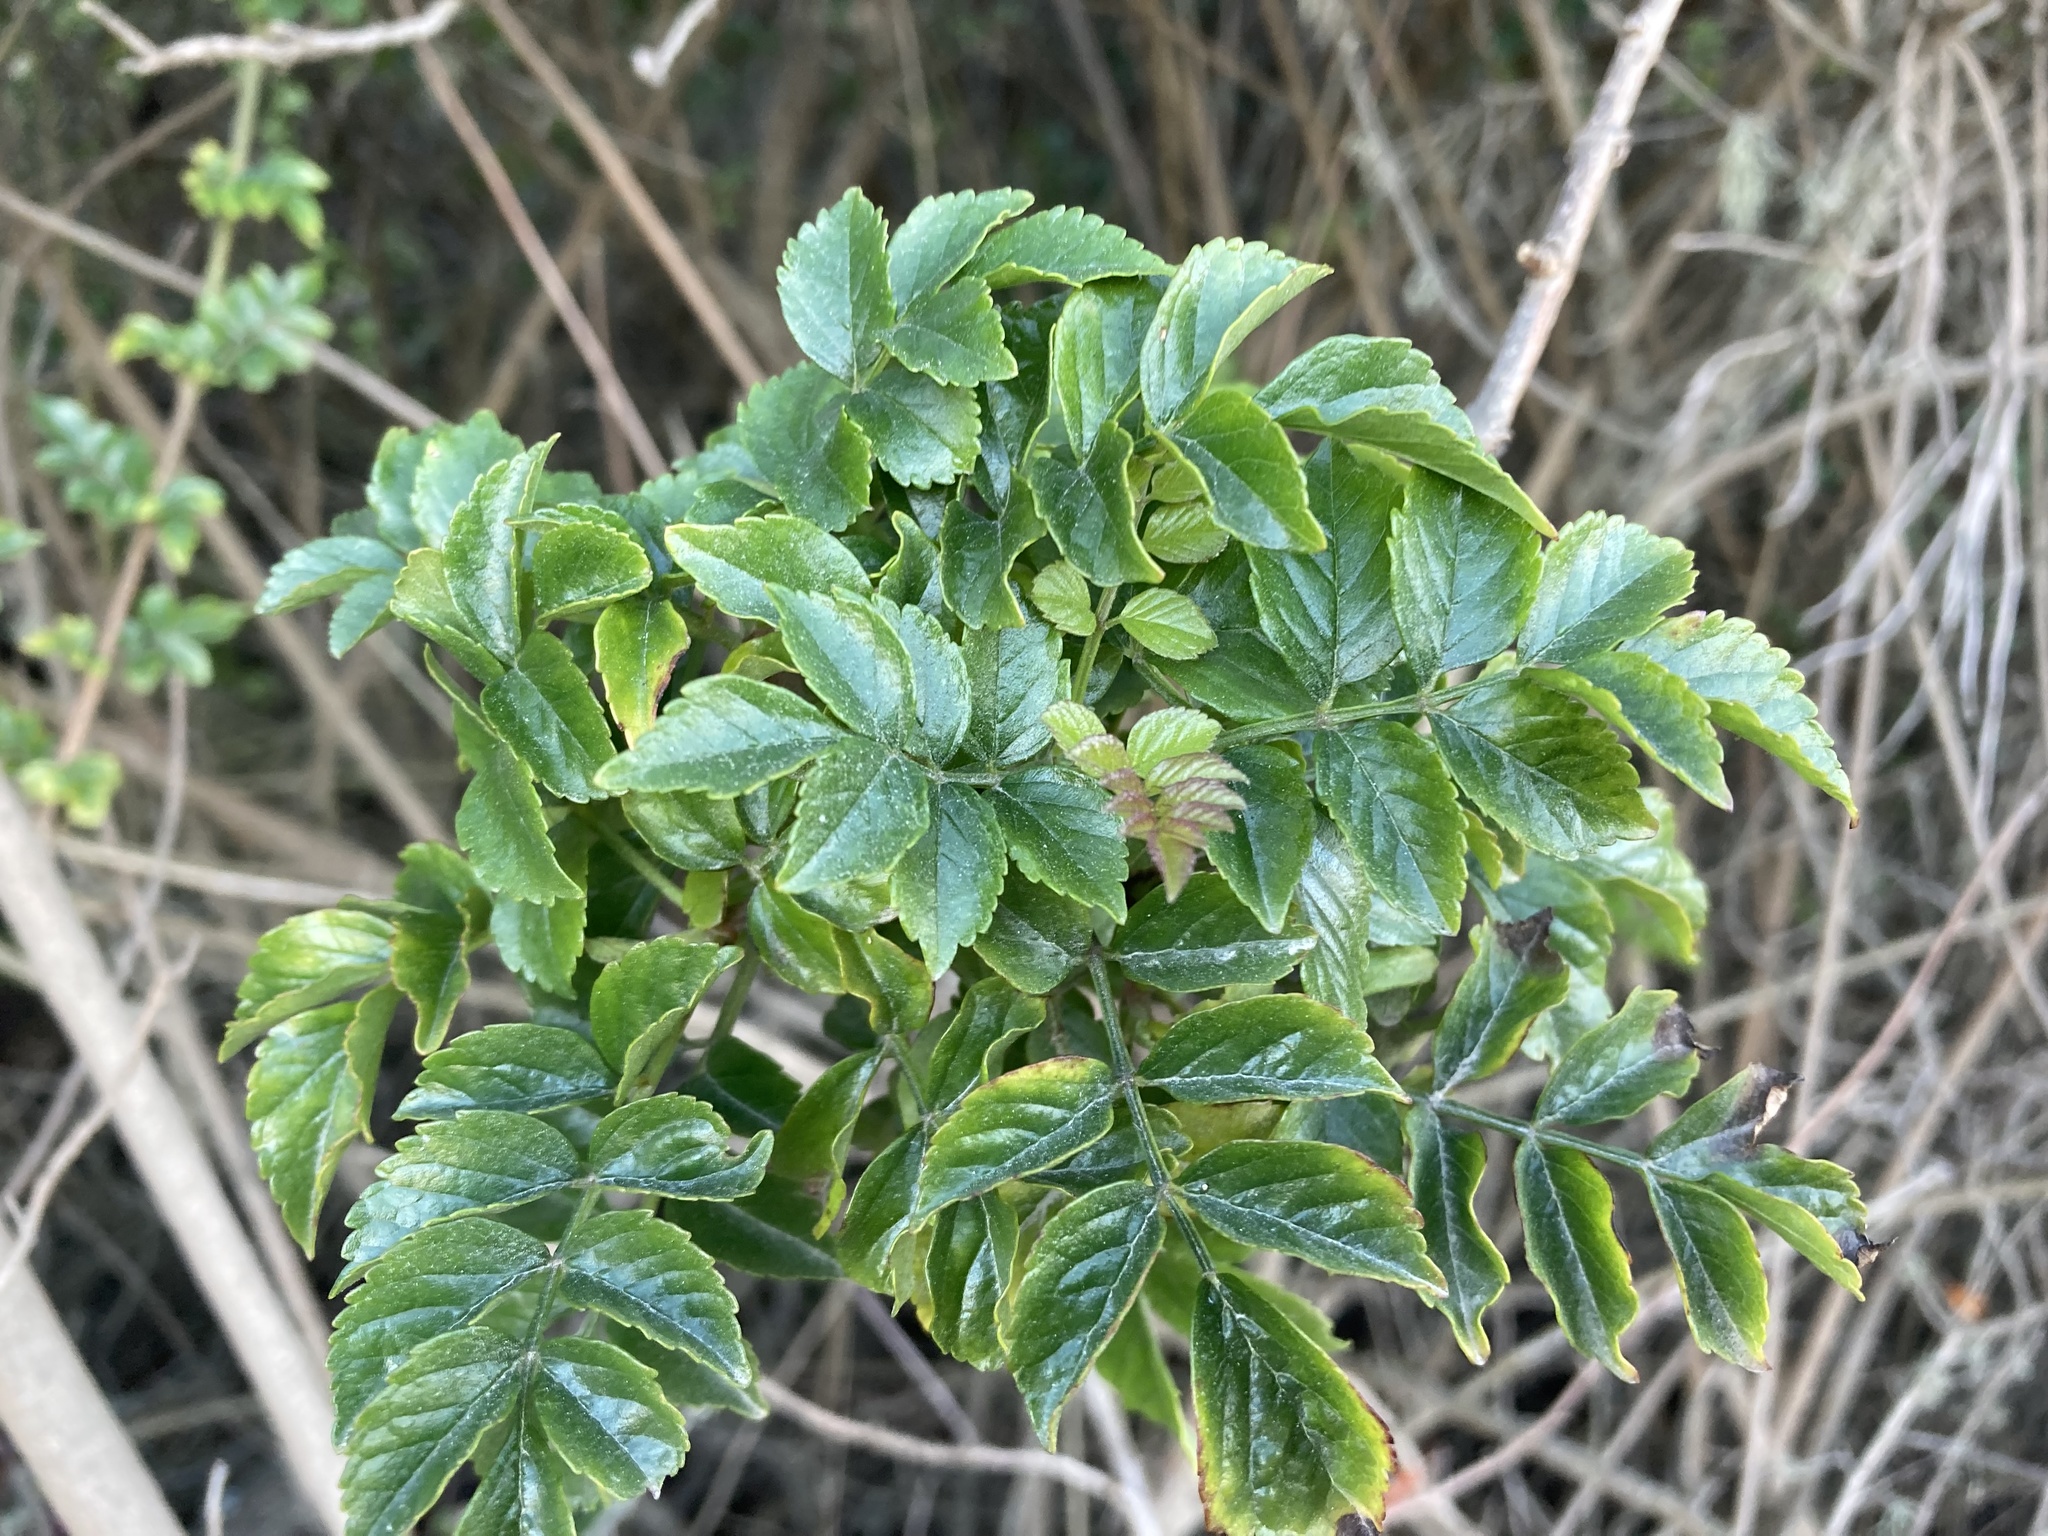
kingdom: Plantae
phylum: Tracheophyta
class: Magnoliopsida
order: Lamiales
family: Bignoniaceae
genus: Tecomaria
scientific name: Tecomaria capensis
